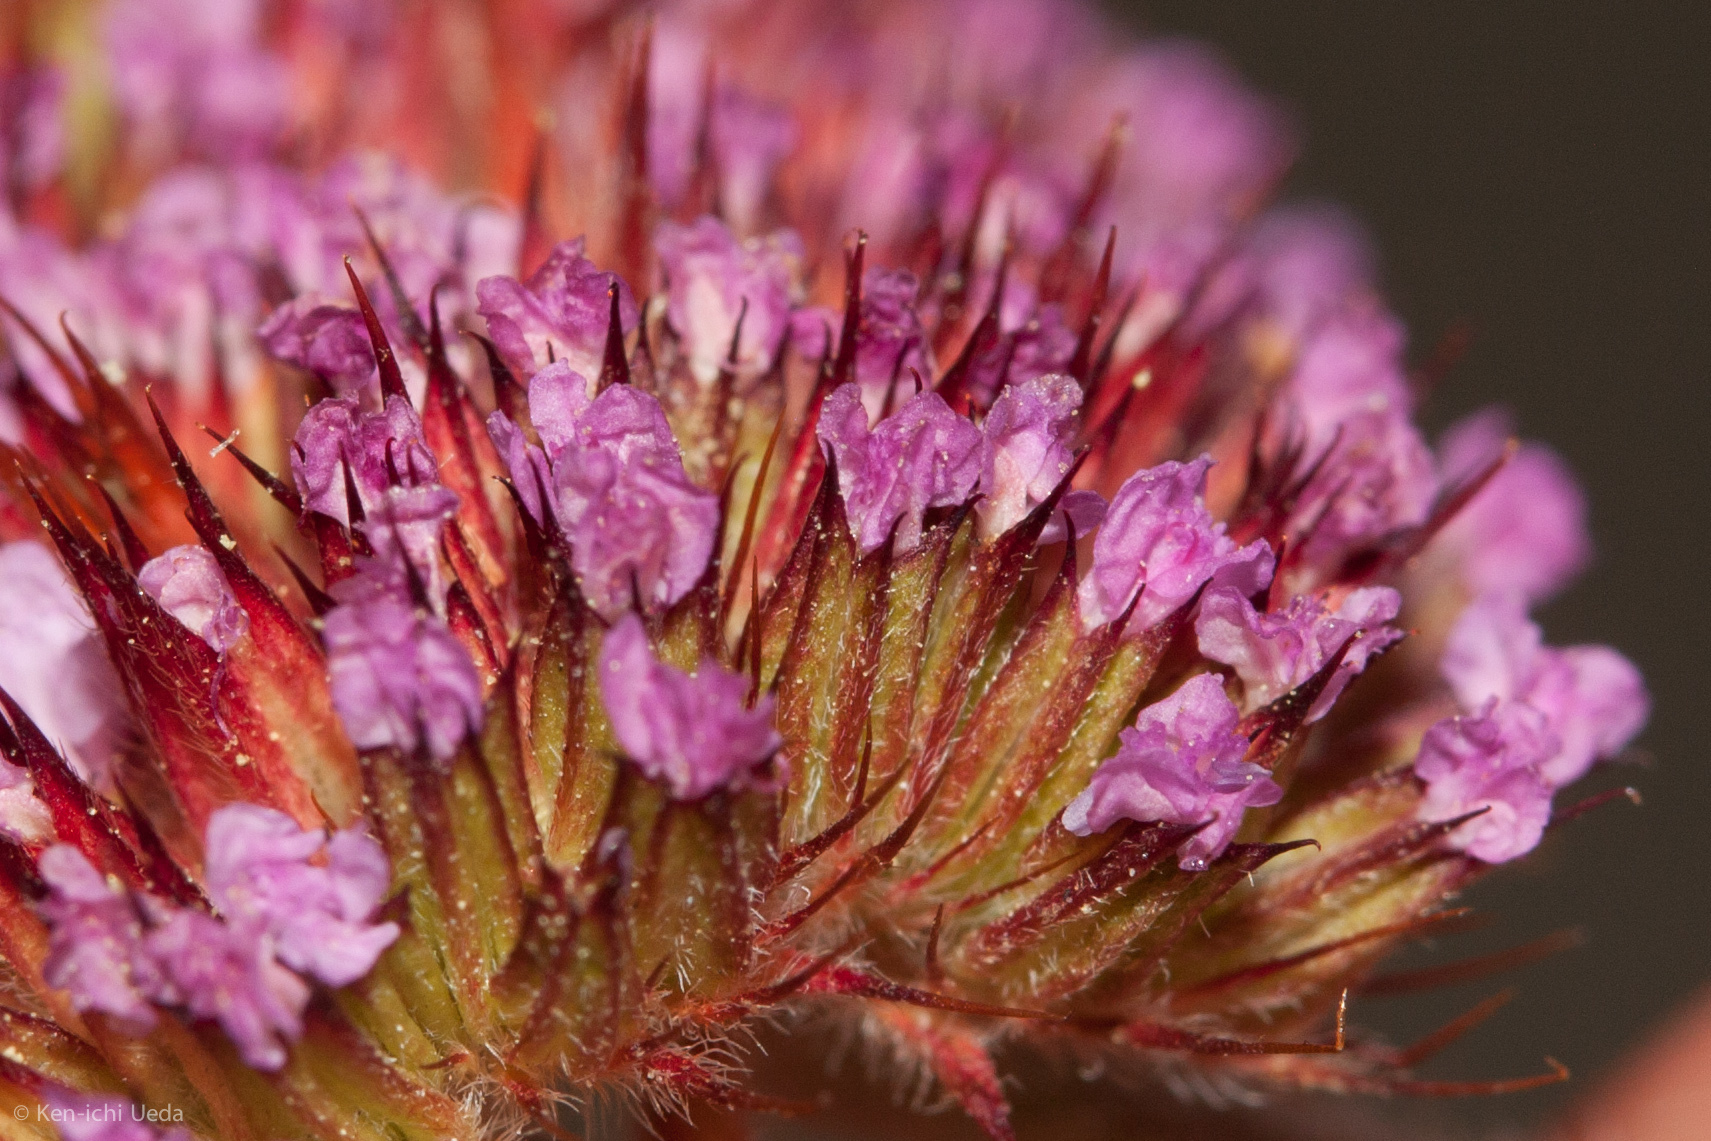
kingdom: Plantae
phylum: Tracheophyta
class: Magnoliopsida
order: Caryophyllales
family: Polygonaceae
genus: Chorizanthe
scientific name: Chorizanthe palmeri
